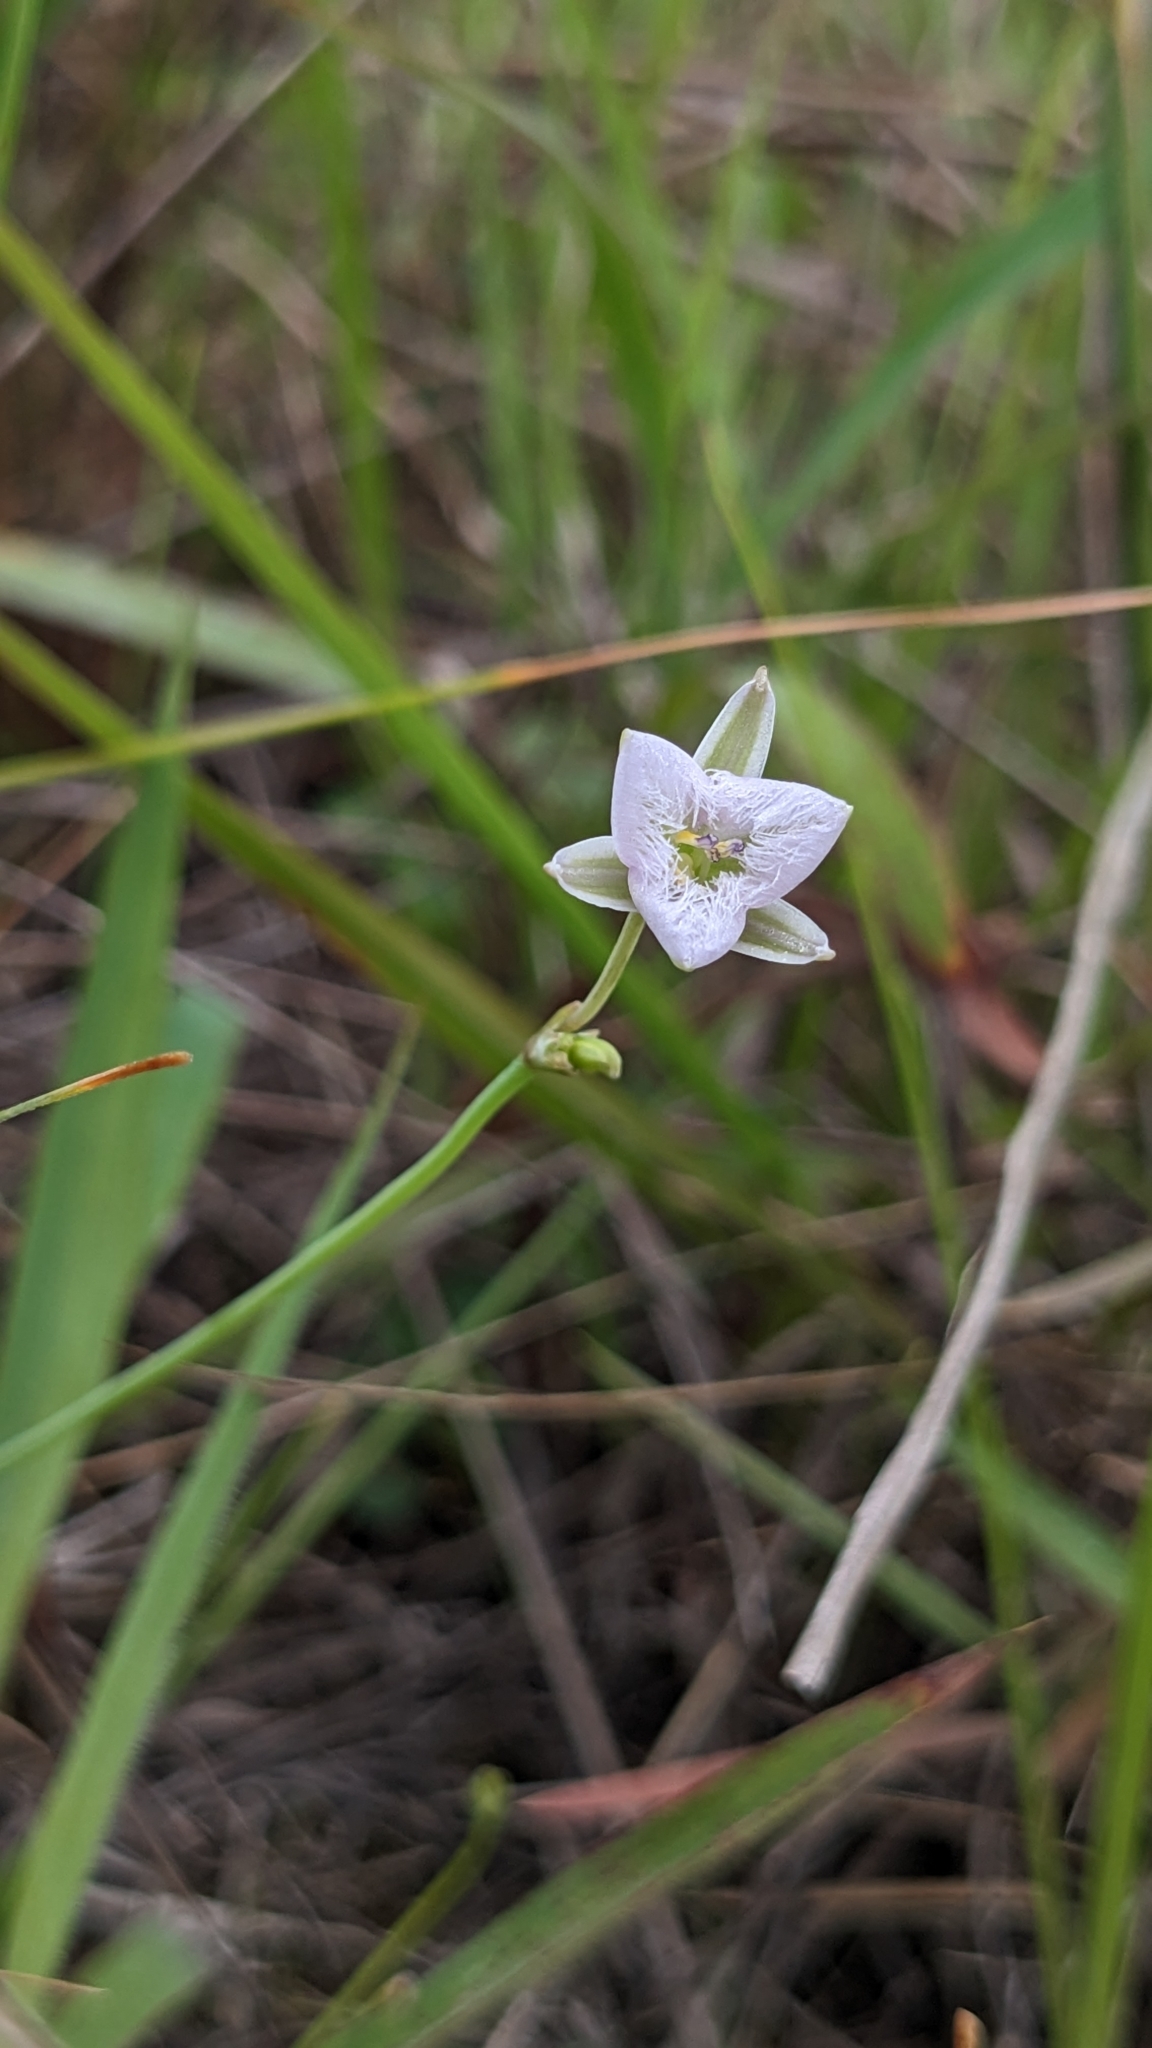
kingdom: Plantae
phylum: Tracheophyta
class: Liliopsida
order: Asparagales
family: Asparagaceae
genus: Thysanotus
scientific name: Thysanotus chinensis
